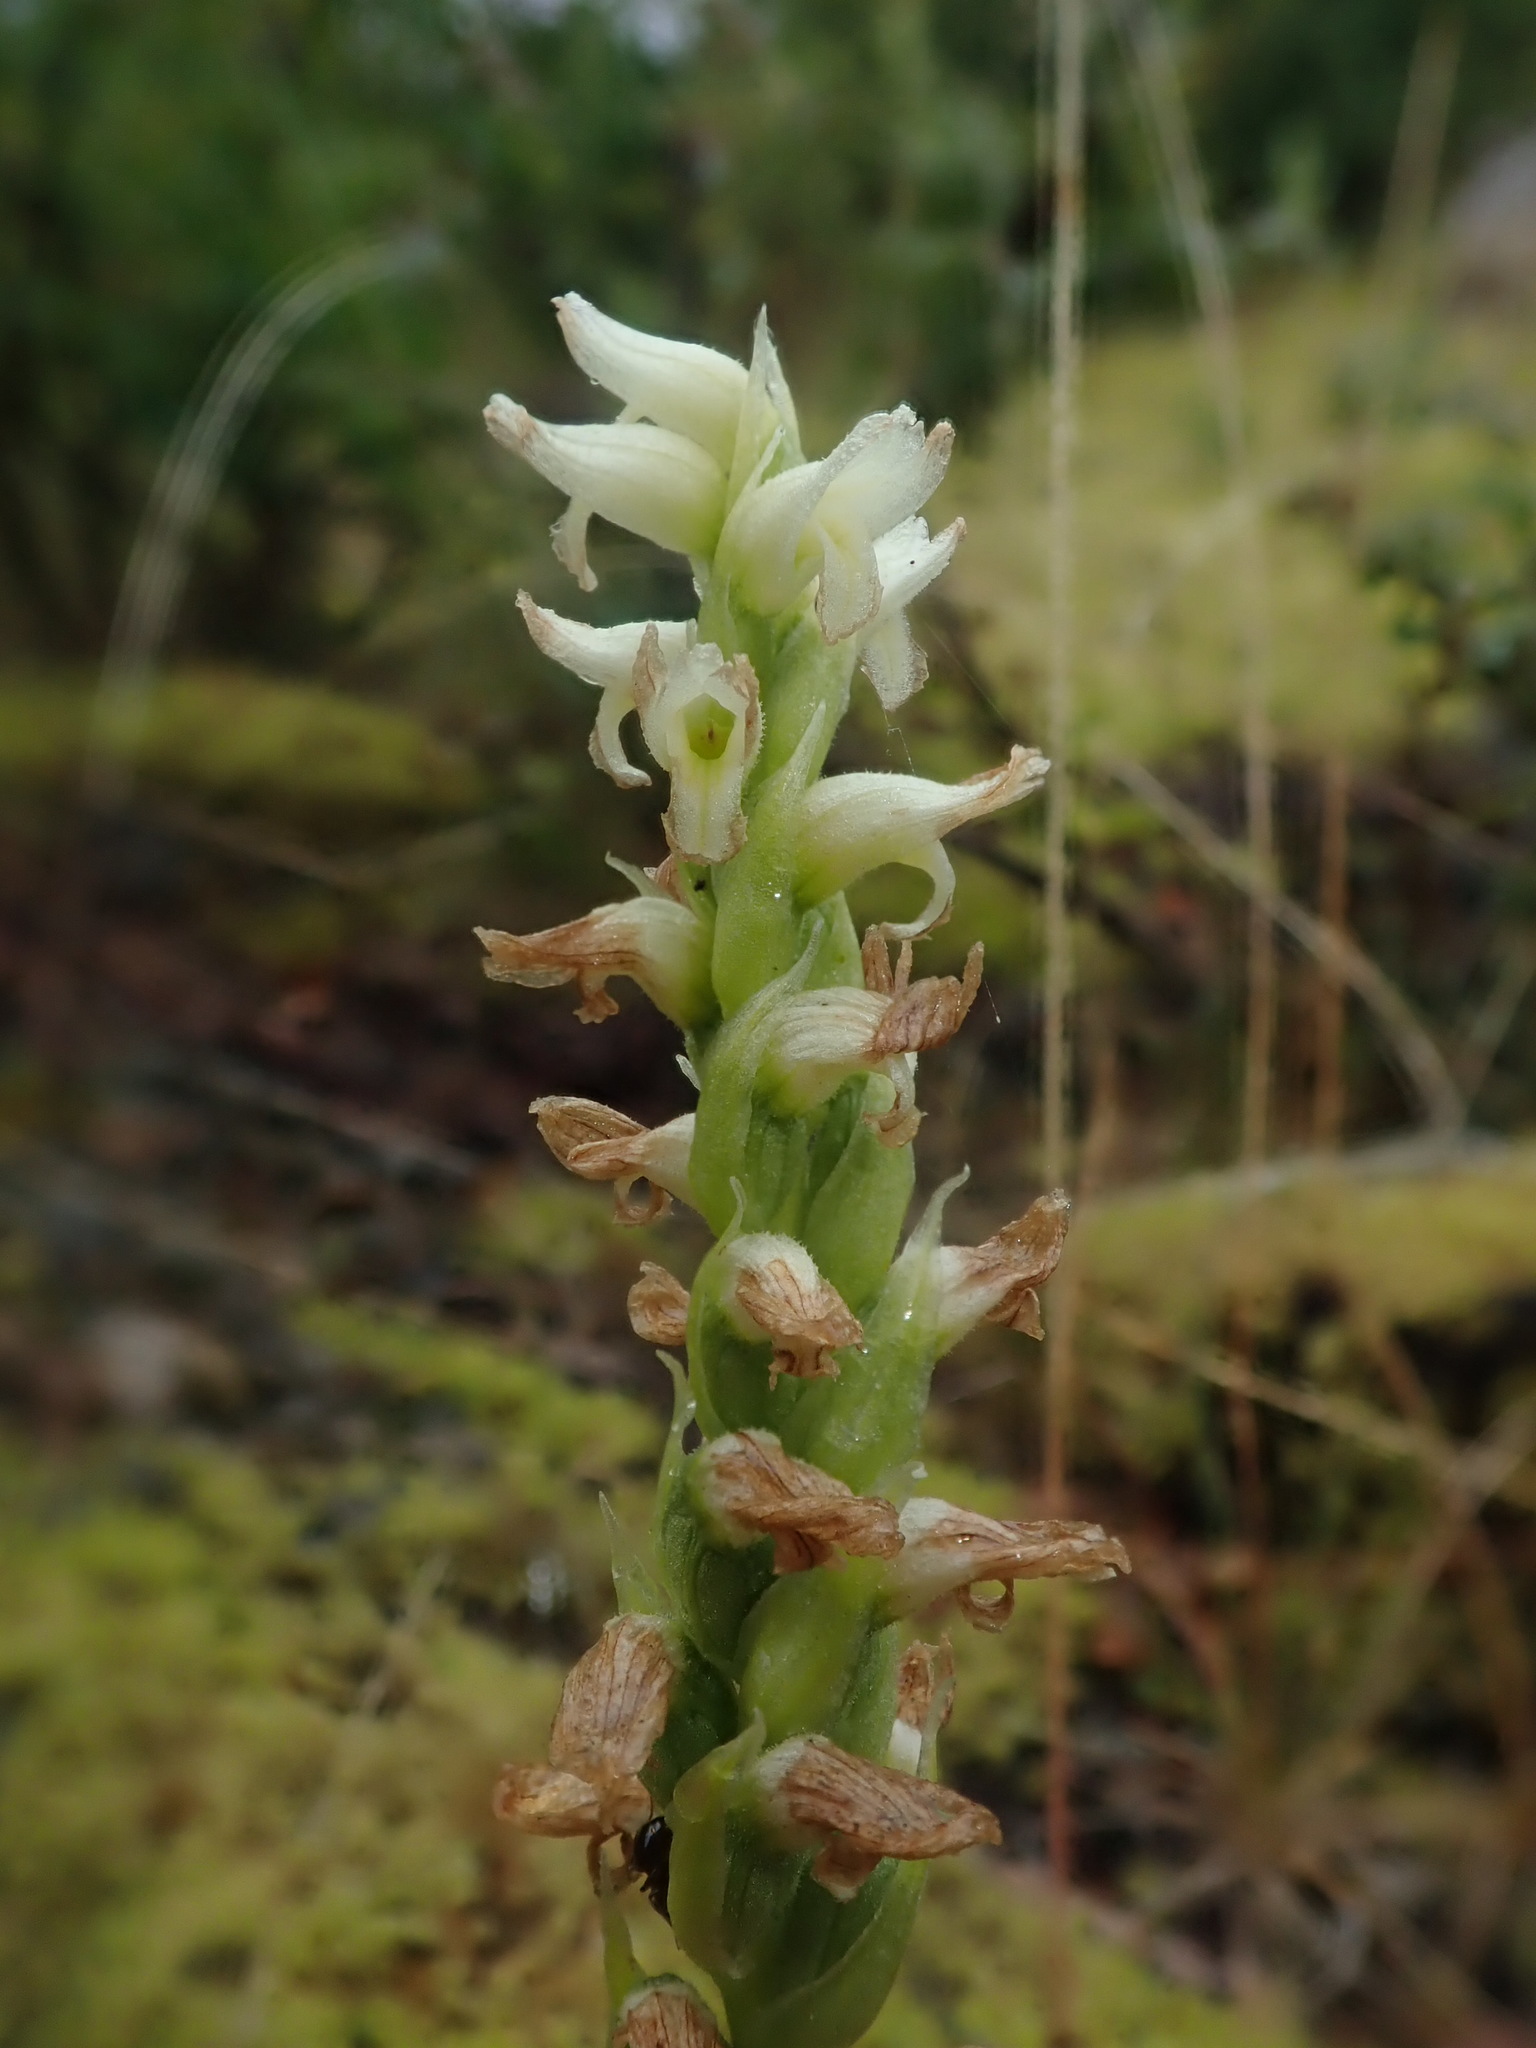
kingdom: Plantae
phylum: Tracheophyta
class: Liliopsida
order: Asparagales
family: Orchidaceae
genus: Spiranthes
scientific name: Spiranthes romanzoffiana
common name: Irish lady's-tresses
